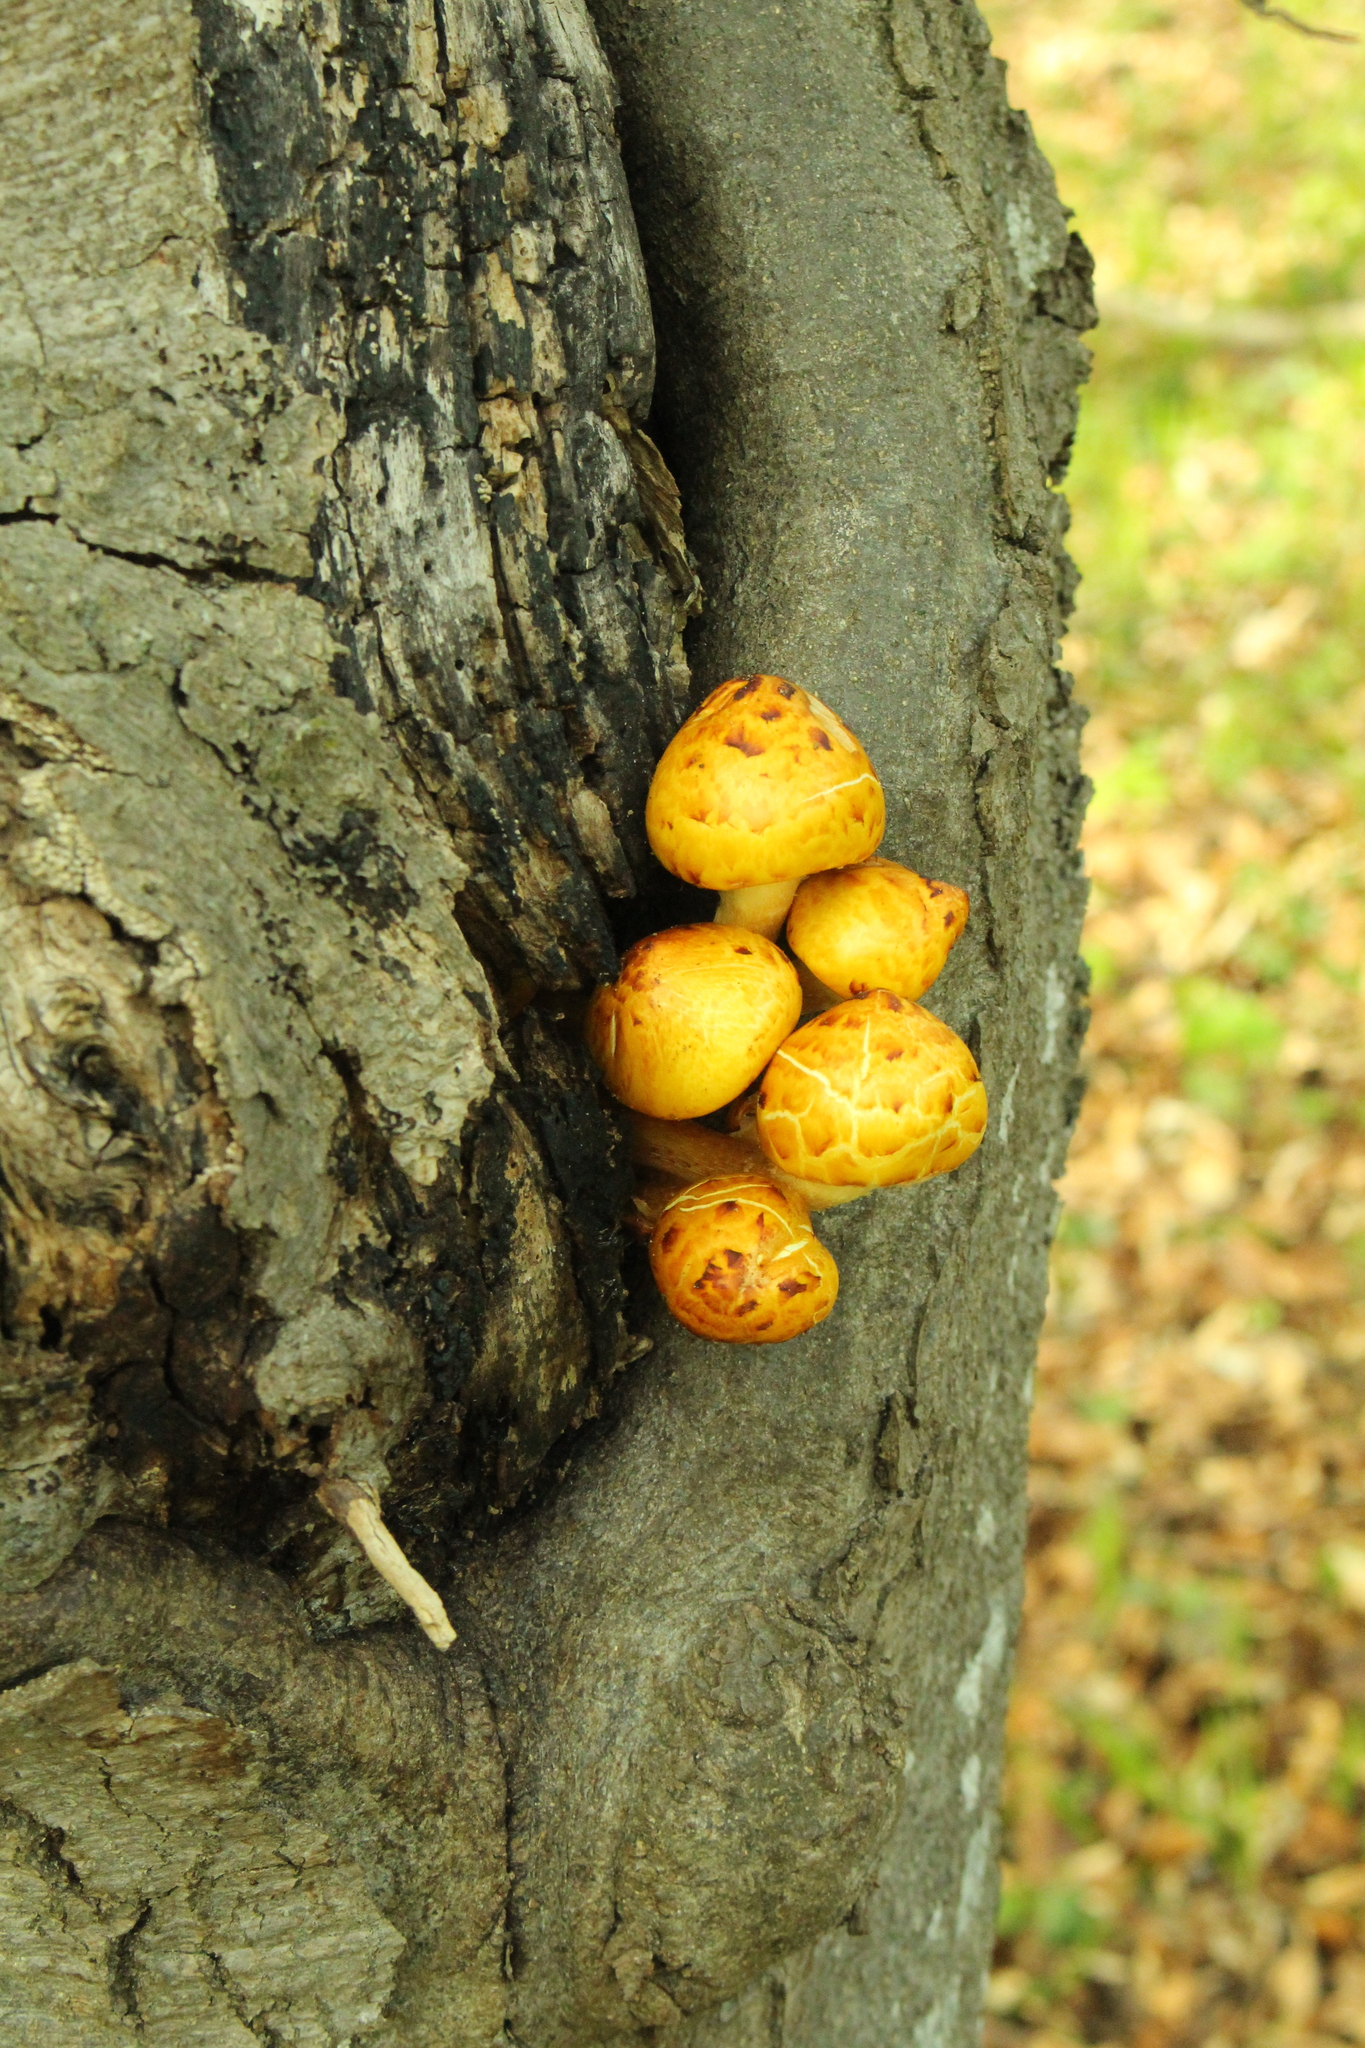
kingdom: Fungi
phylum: Basidiomycota
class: Agaricomycetes
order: Agaricales
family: Strophariaceae
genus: Pholiota
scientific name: Pholiota aurivella
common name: Golden scalycap
